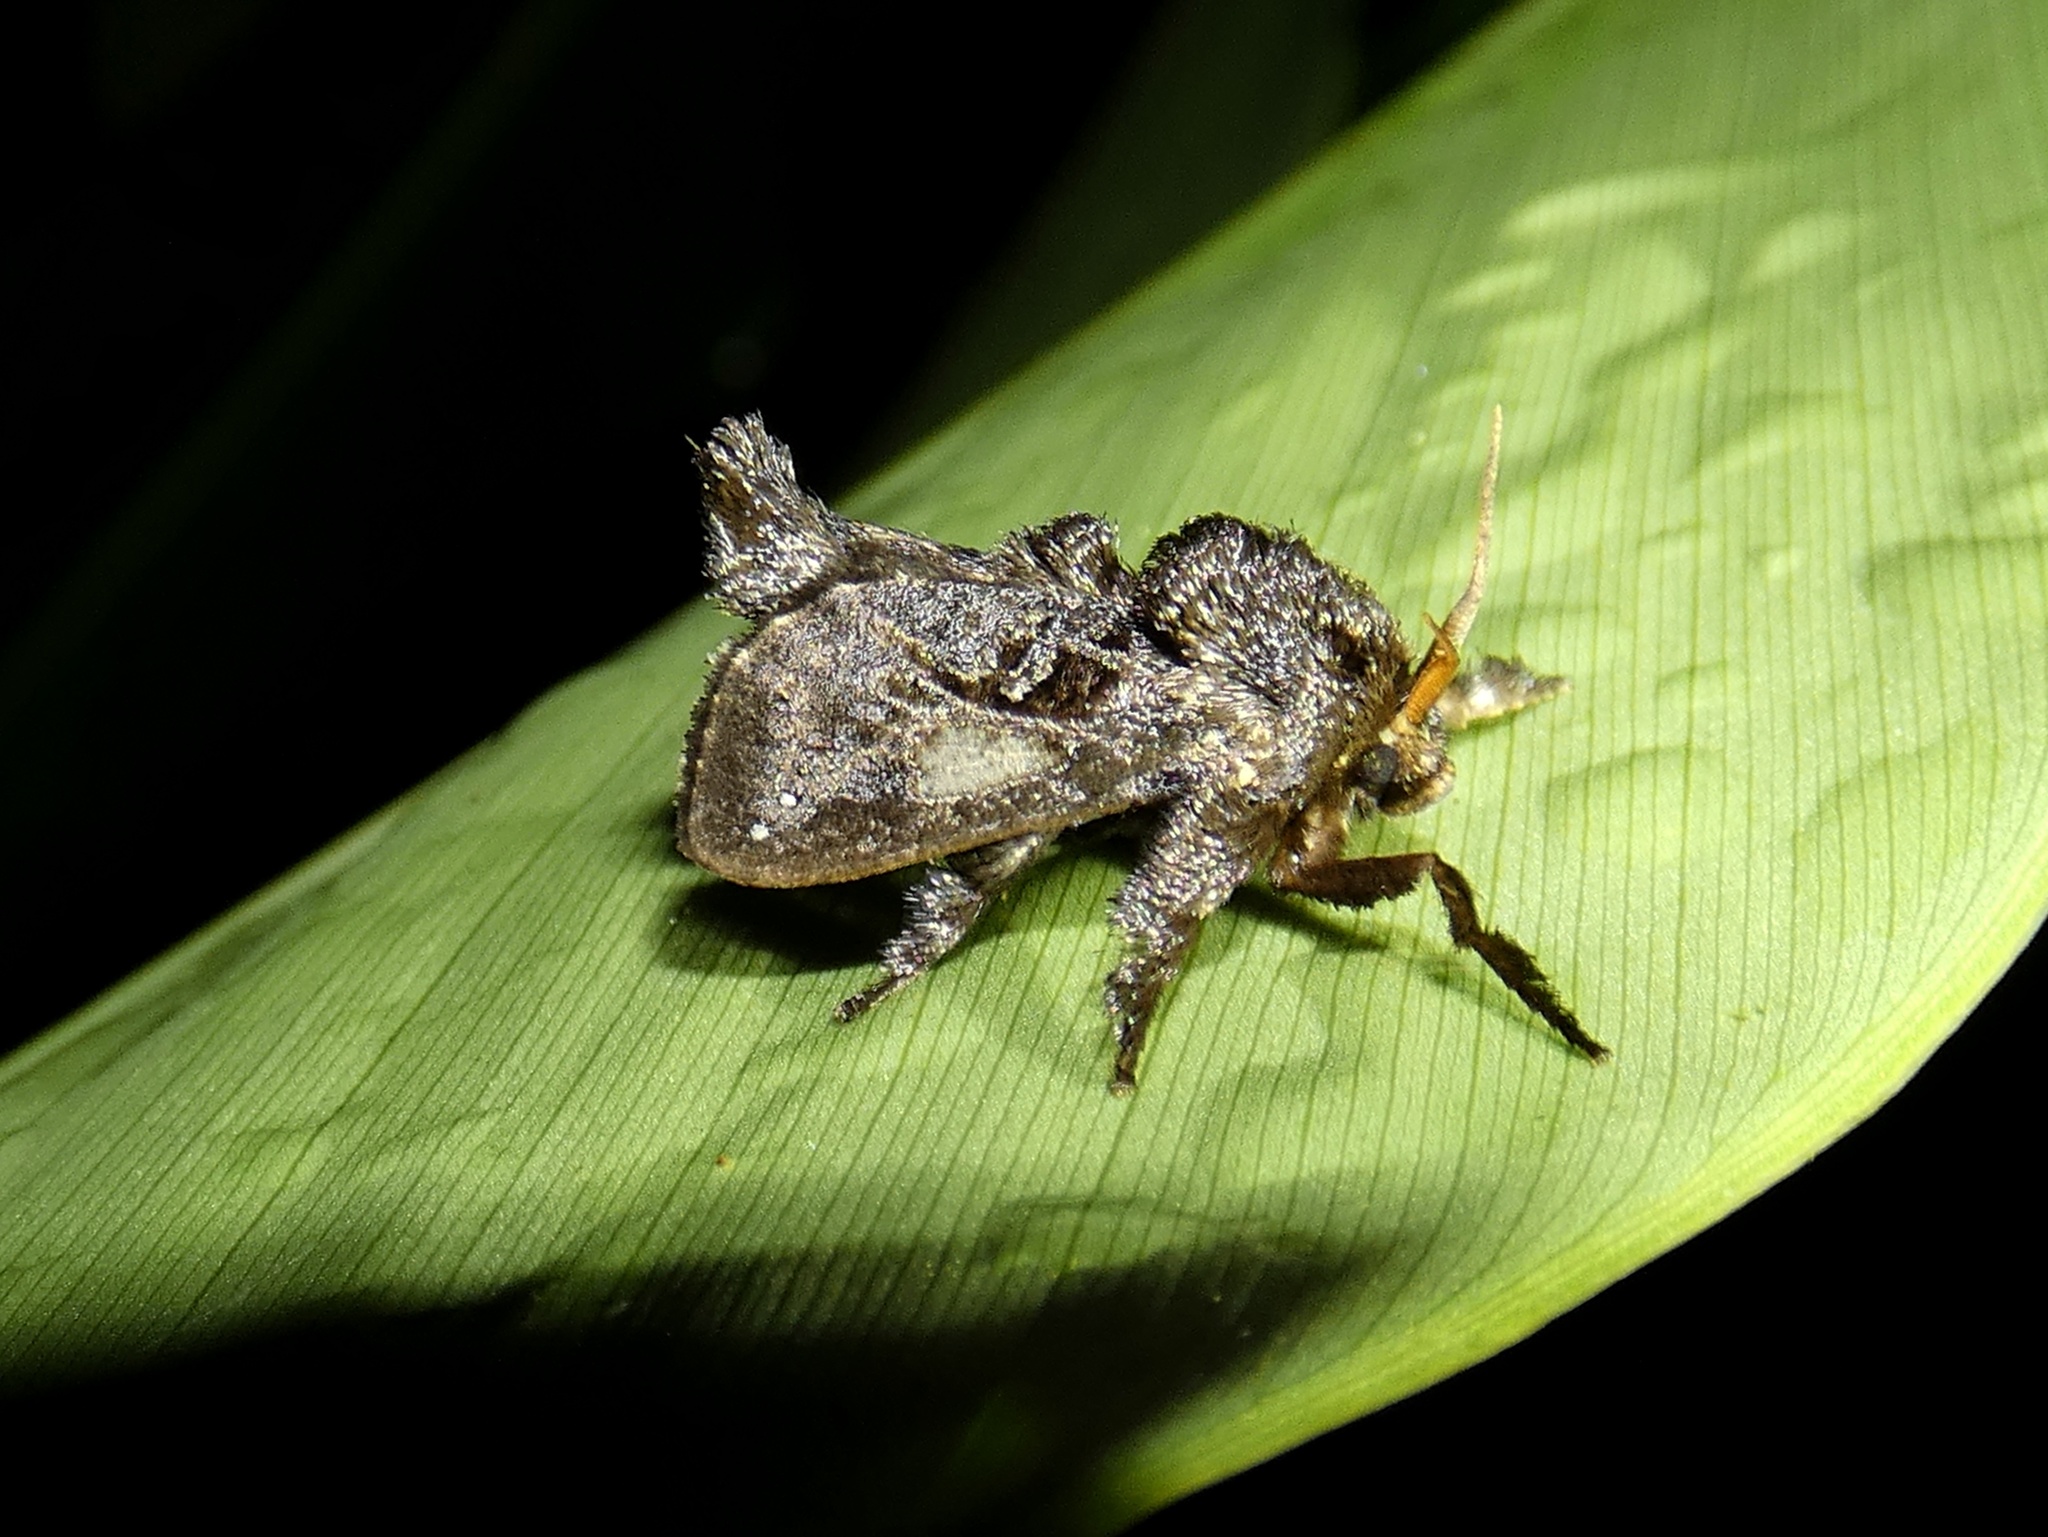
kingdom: Animalia
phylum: Arthropoda
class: Insecta
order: Lepidoptera
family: Limacodidae
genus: Euclea
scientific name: Euclea bidiscalis
